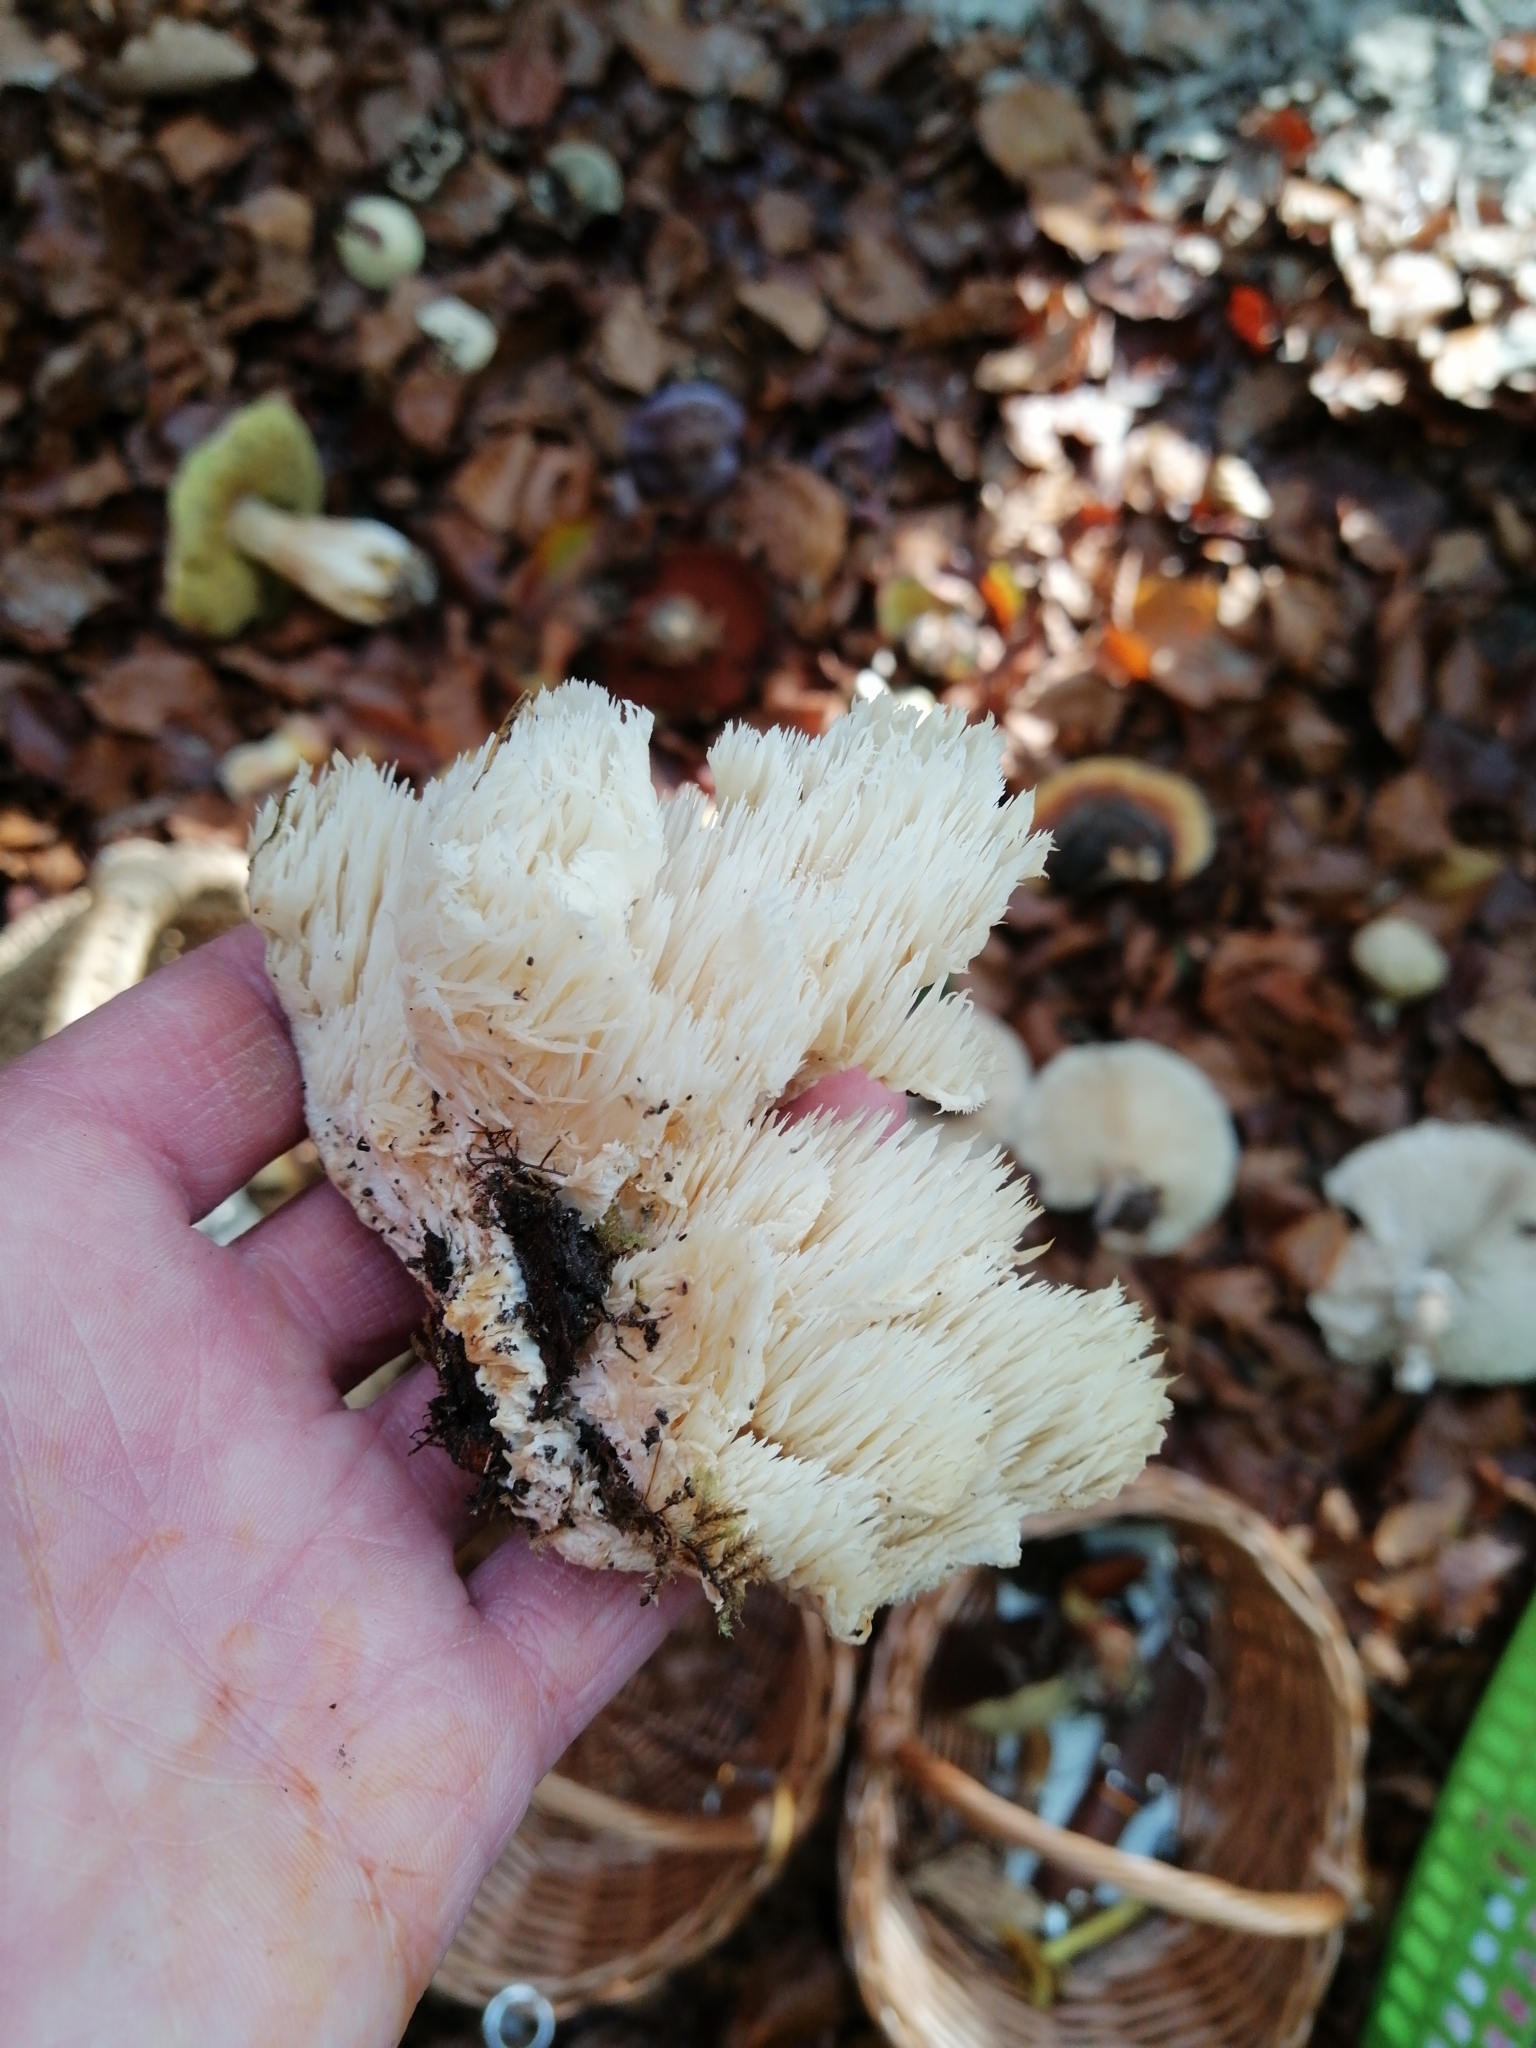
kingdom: Fungi
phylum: Basidiomycota
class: Agaricomycetes
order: Russulales
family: Hericiaceae
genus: Hericium
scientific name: Hericium cirrhatum
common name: Tiered tooth
